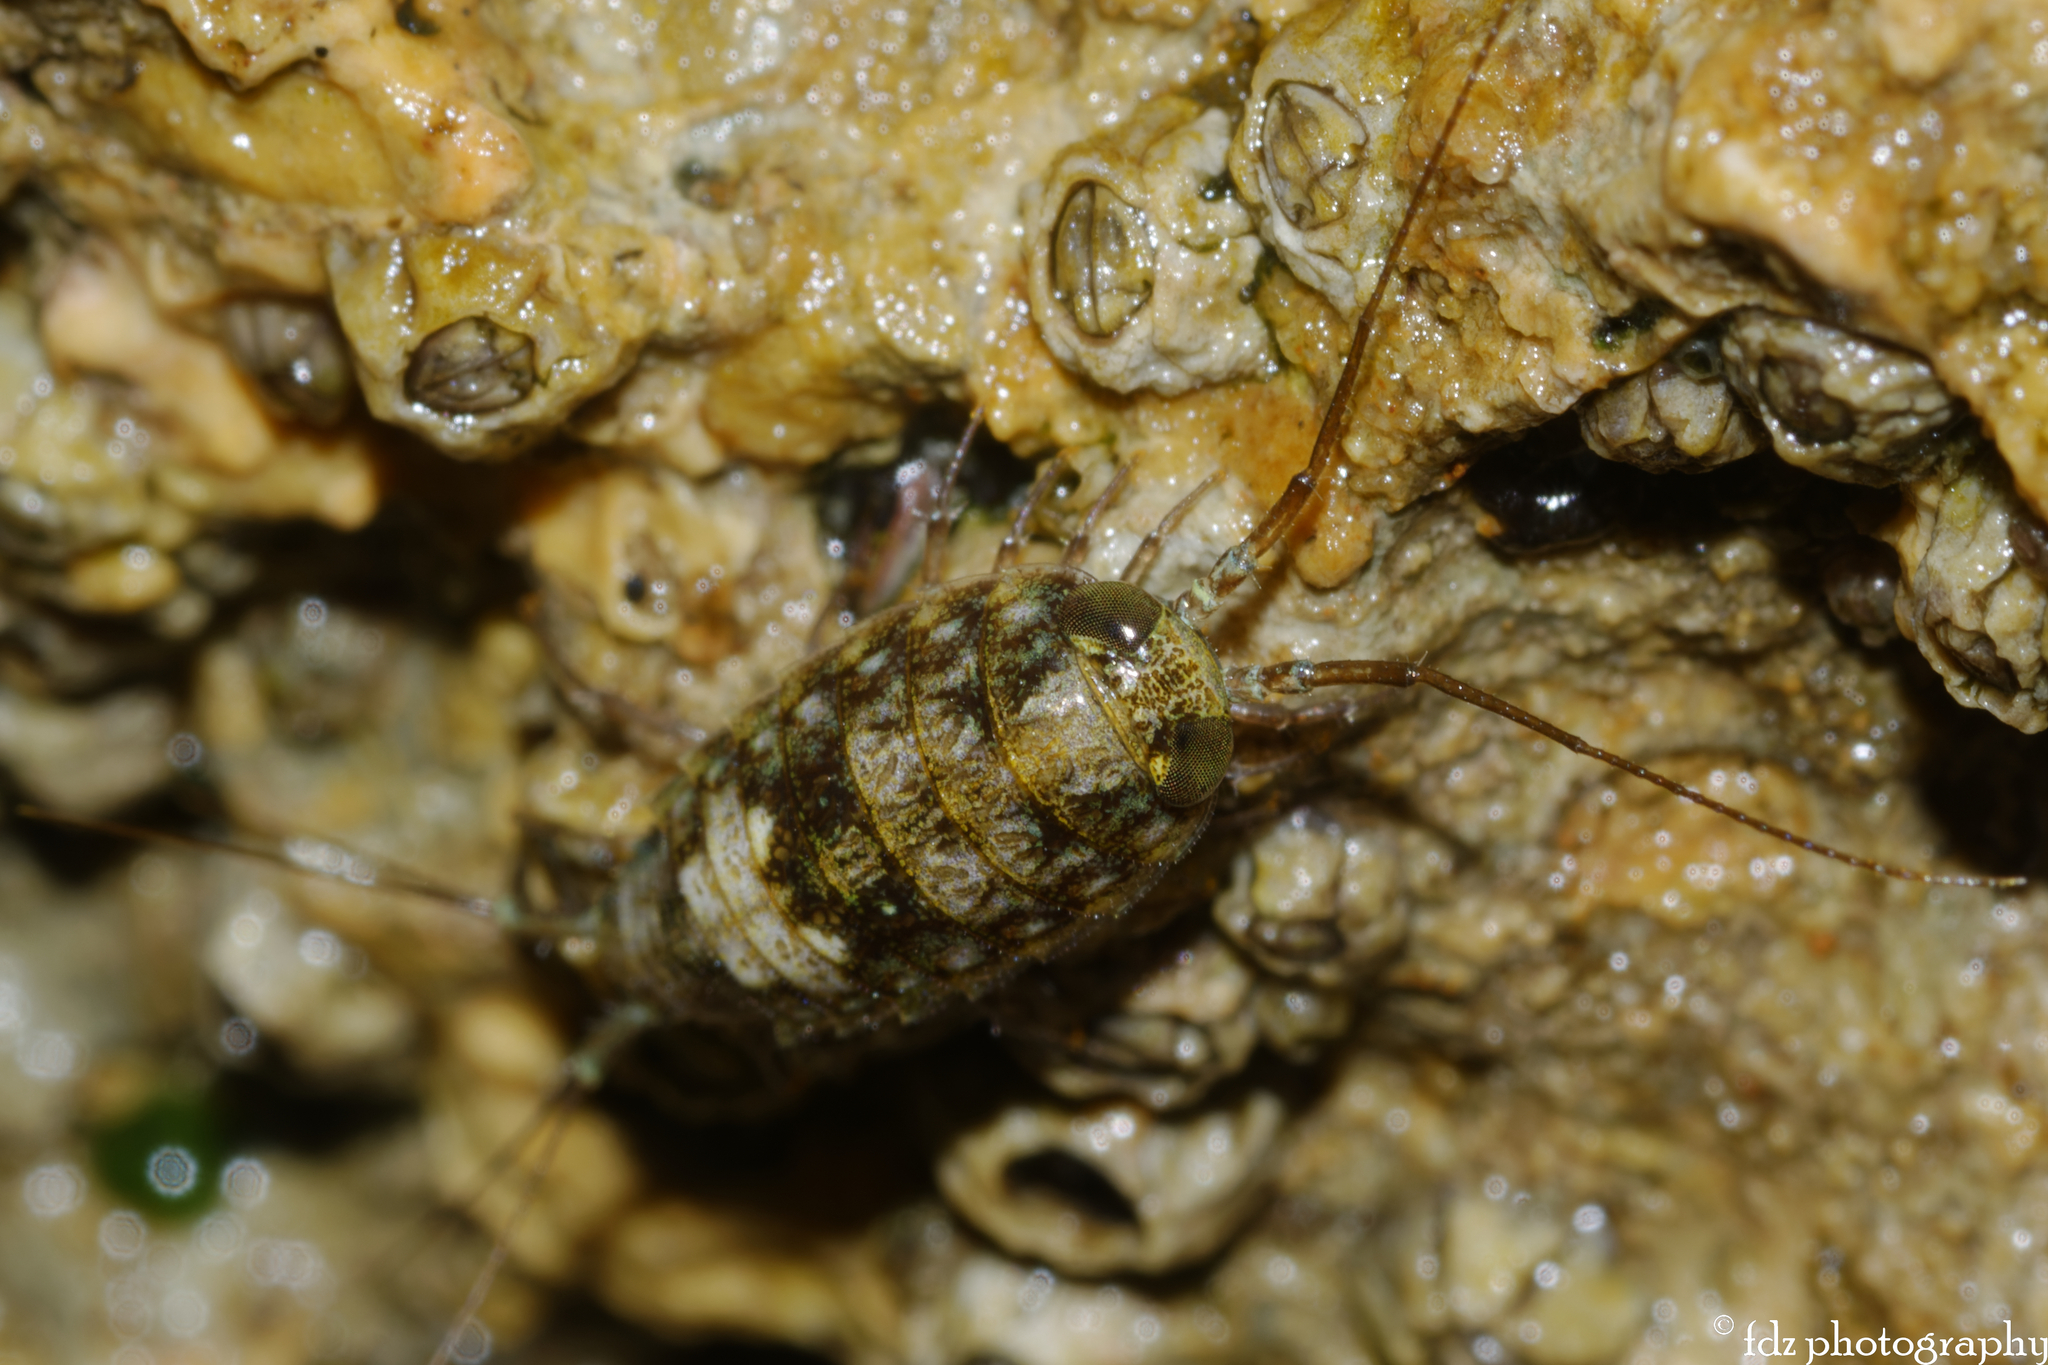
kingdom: Animalia
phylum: Arthropoda
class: Malacostraca
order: Isopoda
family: Ligiidae
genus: Ligia
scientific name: Ligia italica
